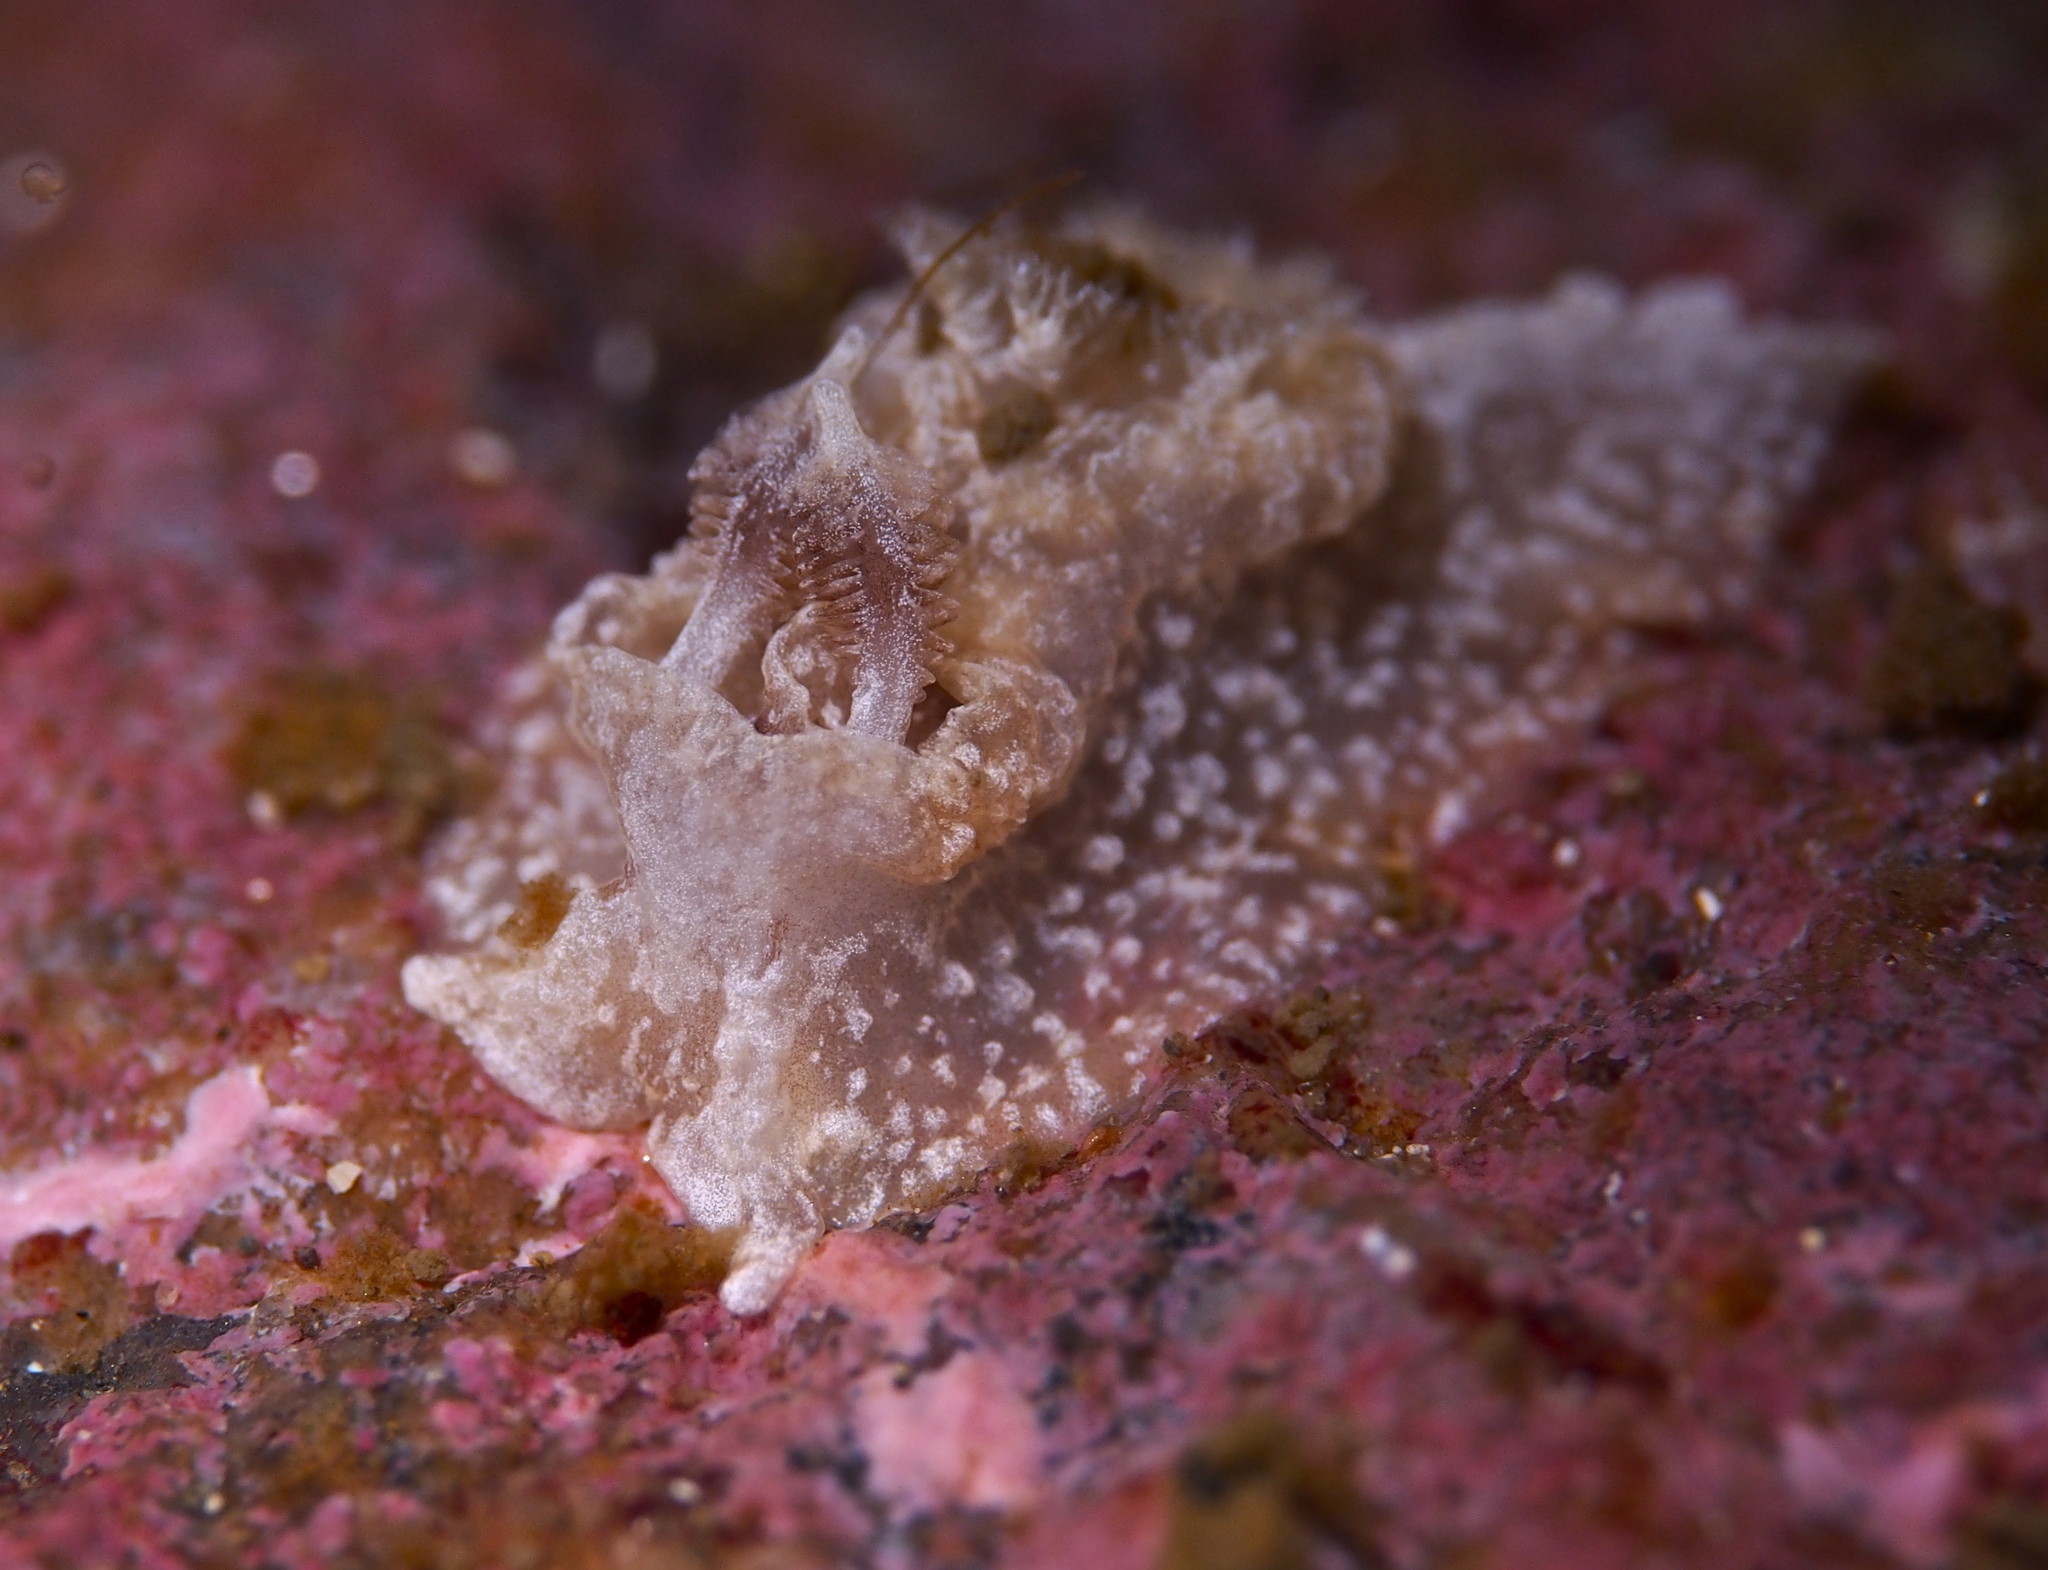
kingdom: Animalia
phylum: Mollusca
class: Gastropoda
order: Nudibranchia
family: Goniodorididae
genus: Pelagella
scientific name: Pelagella castanea
